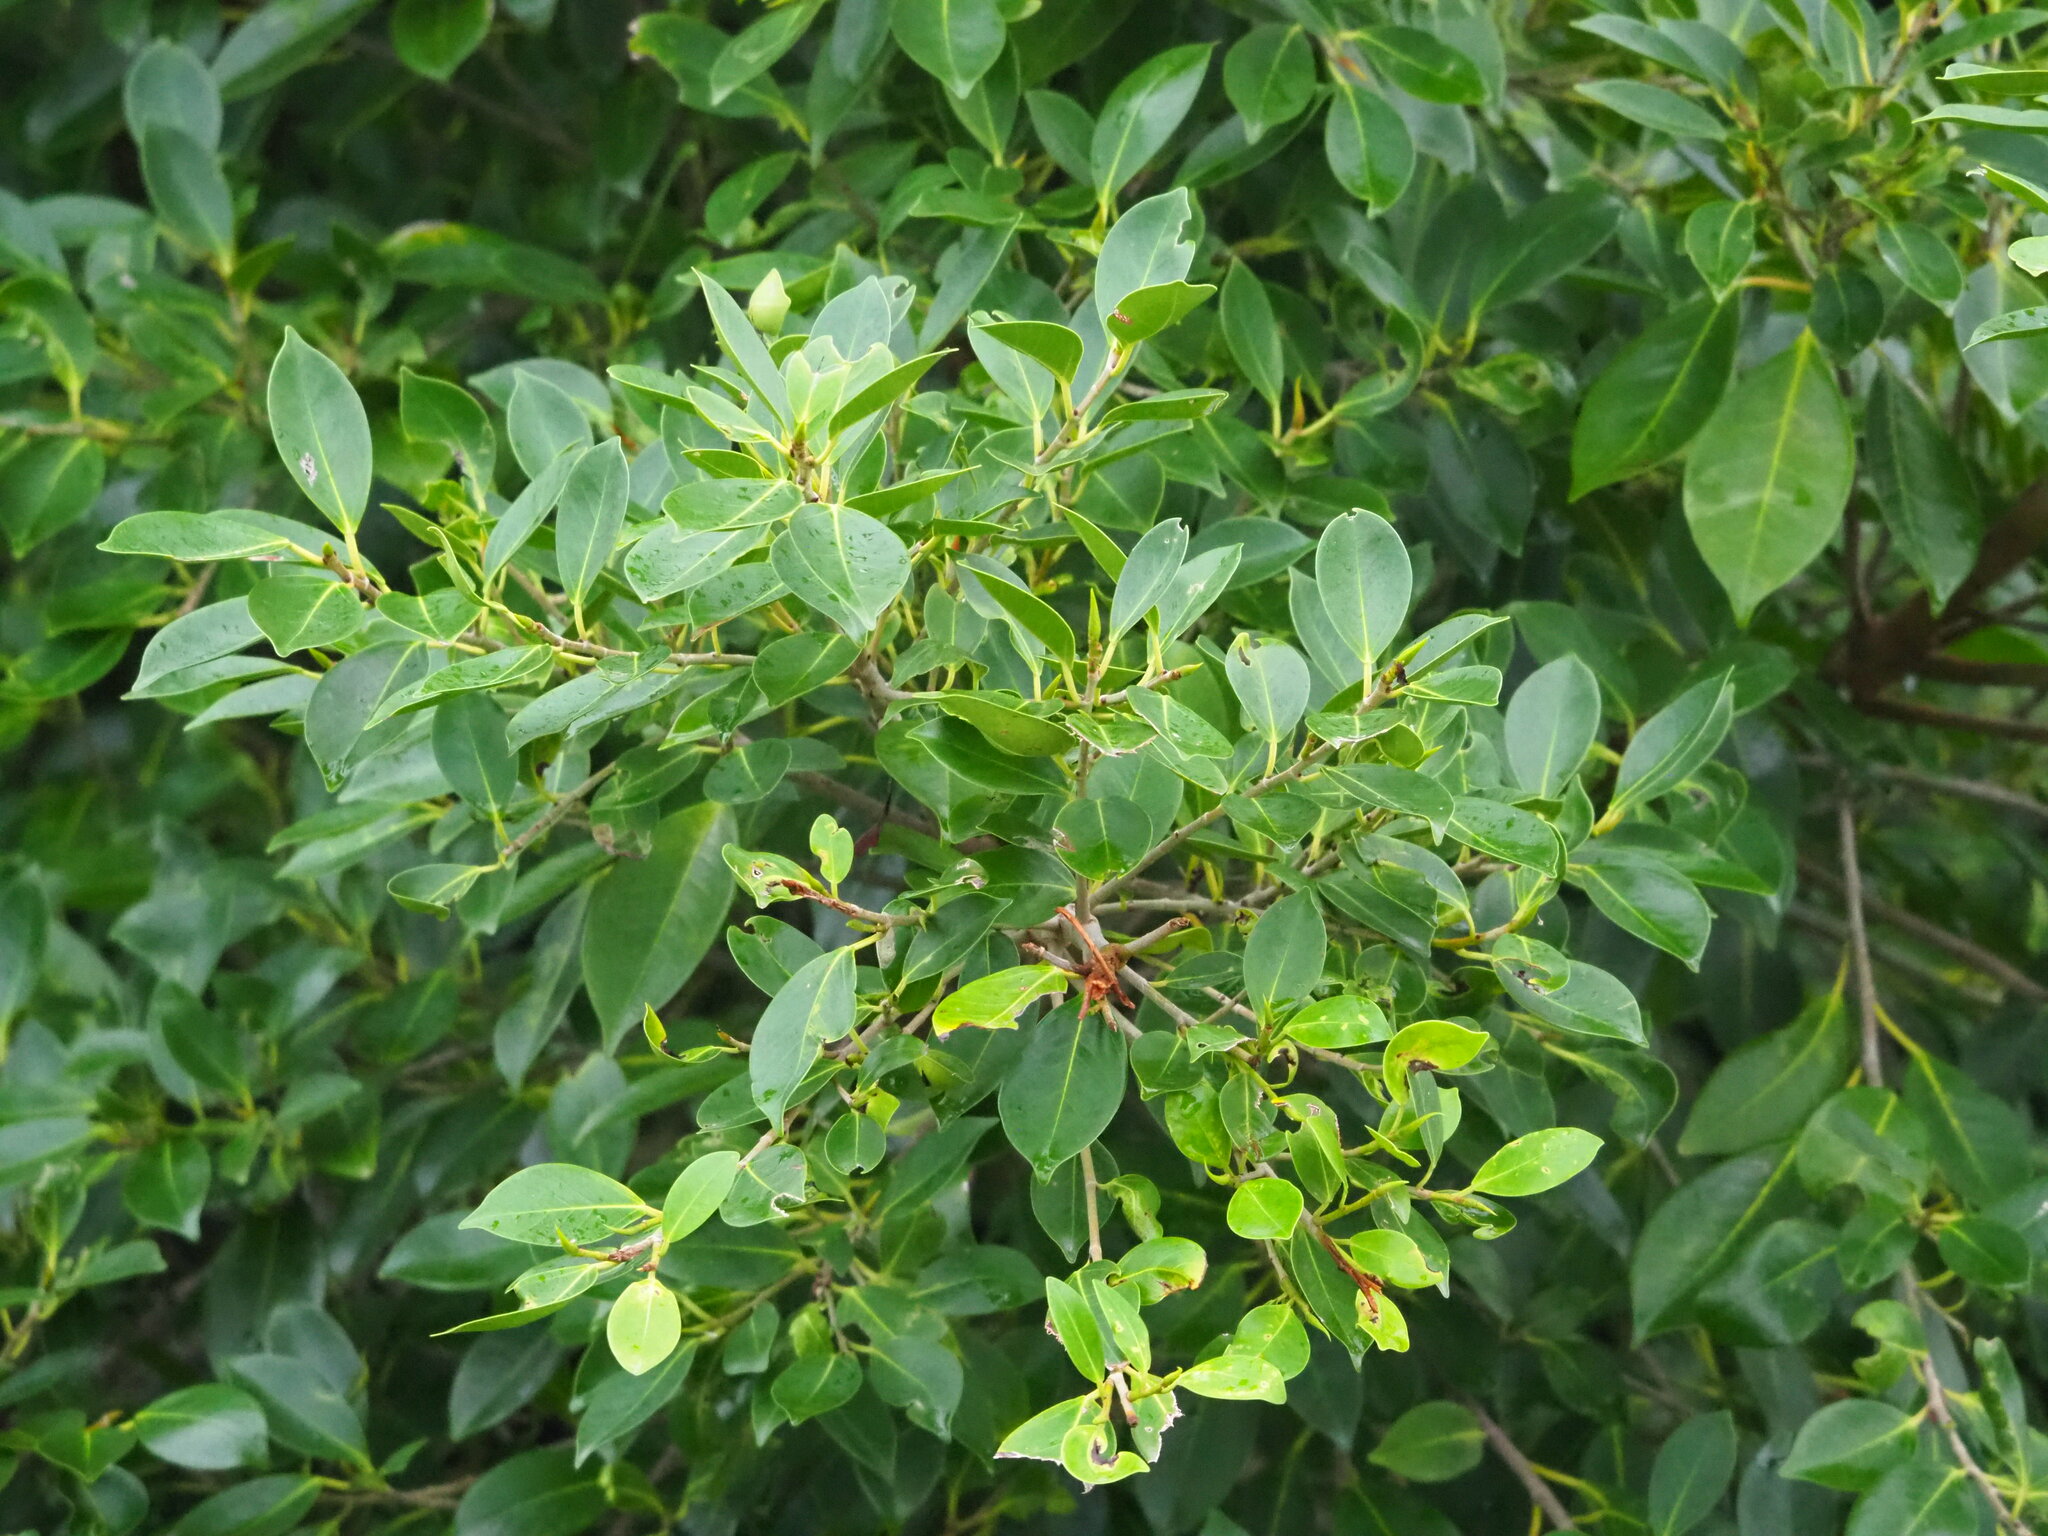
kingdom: Plantae
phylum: Tracheophyta
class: Magnoliopsida
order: Rosales
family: Moraceae
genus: Ficus
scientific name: Ficus microcarpa
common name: Chinese banyan
